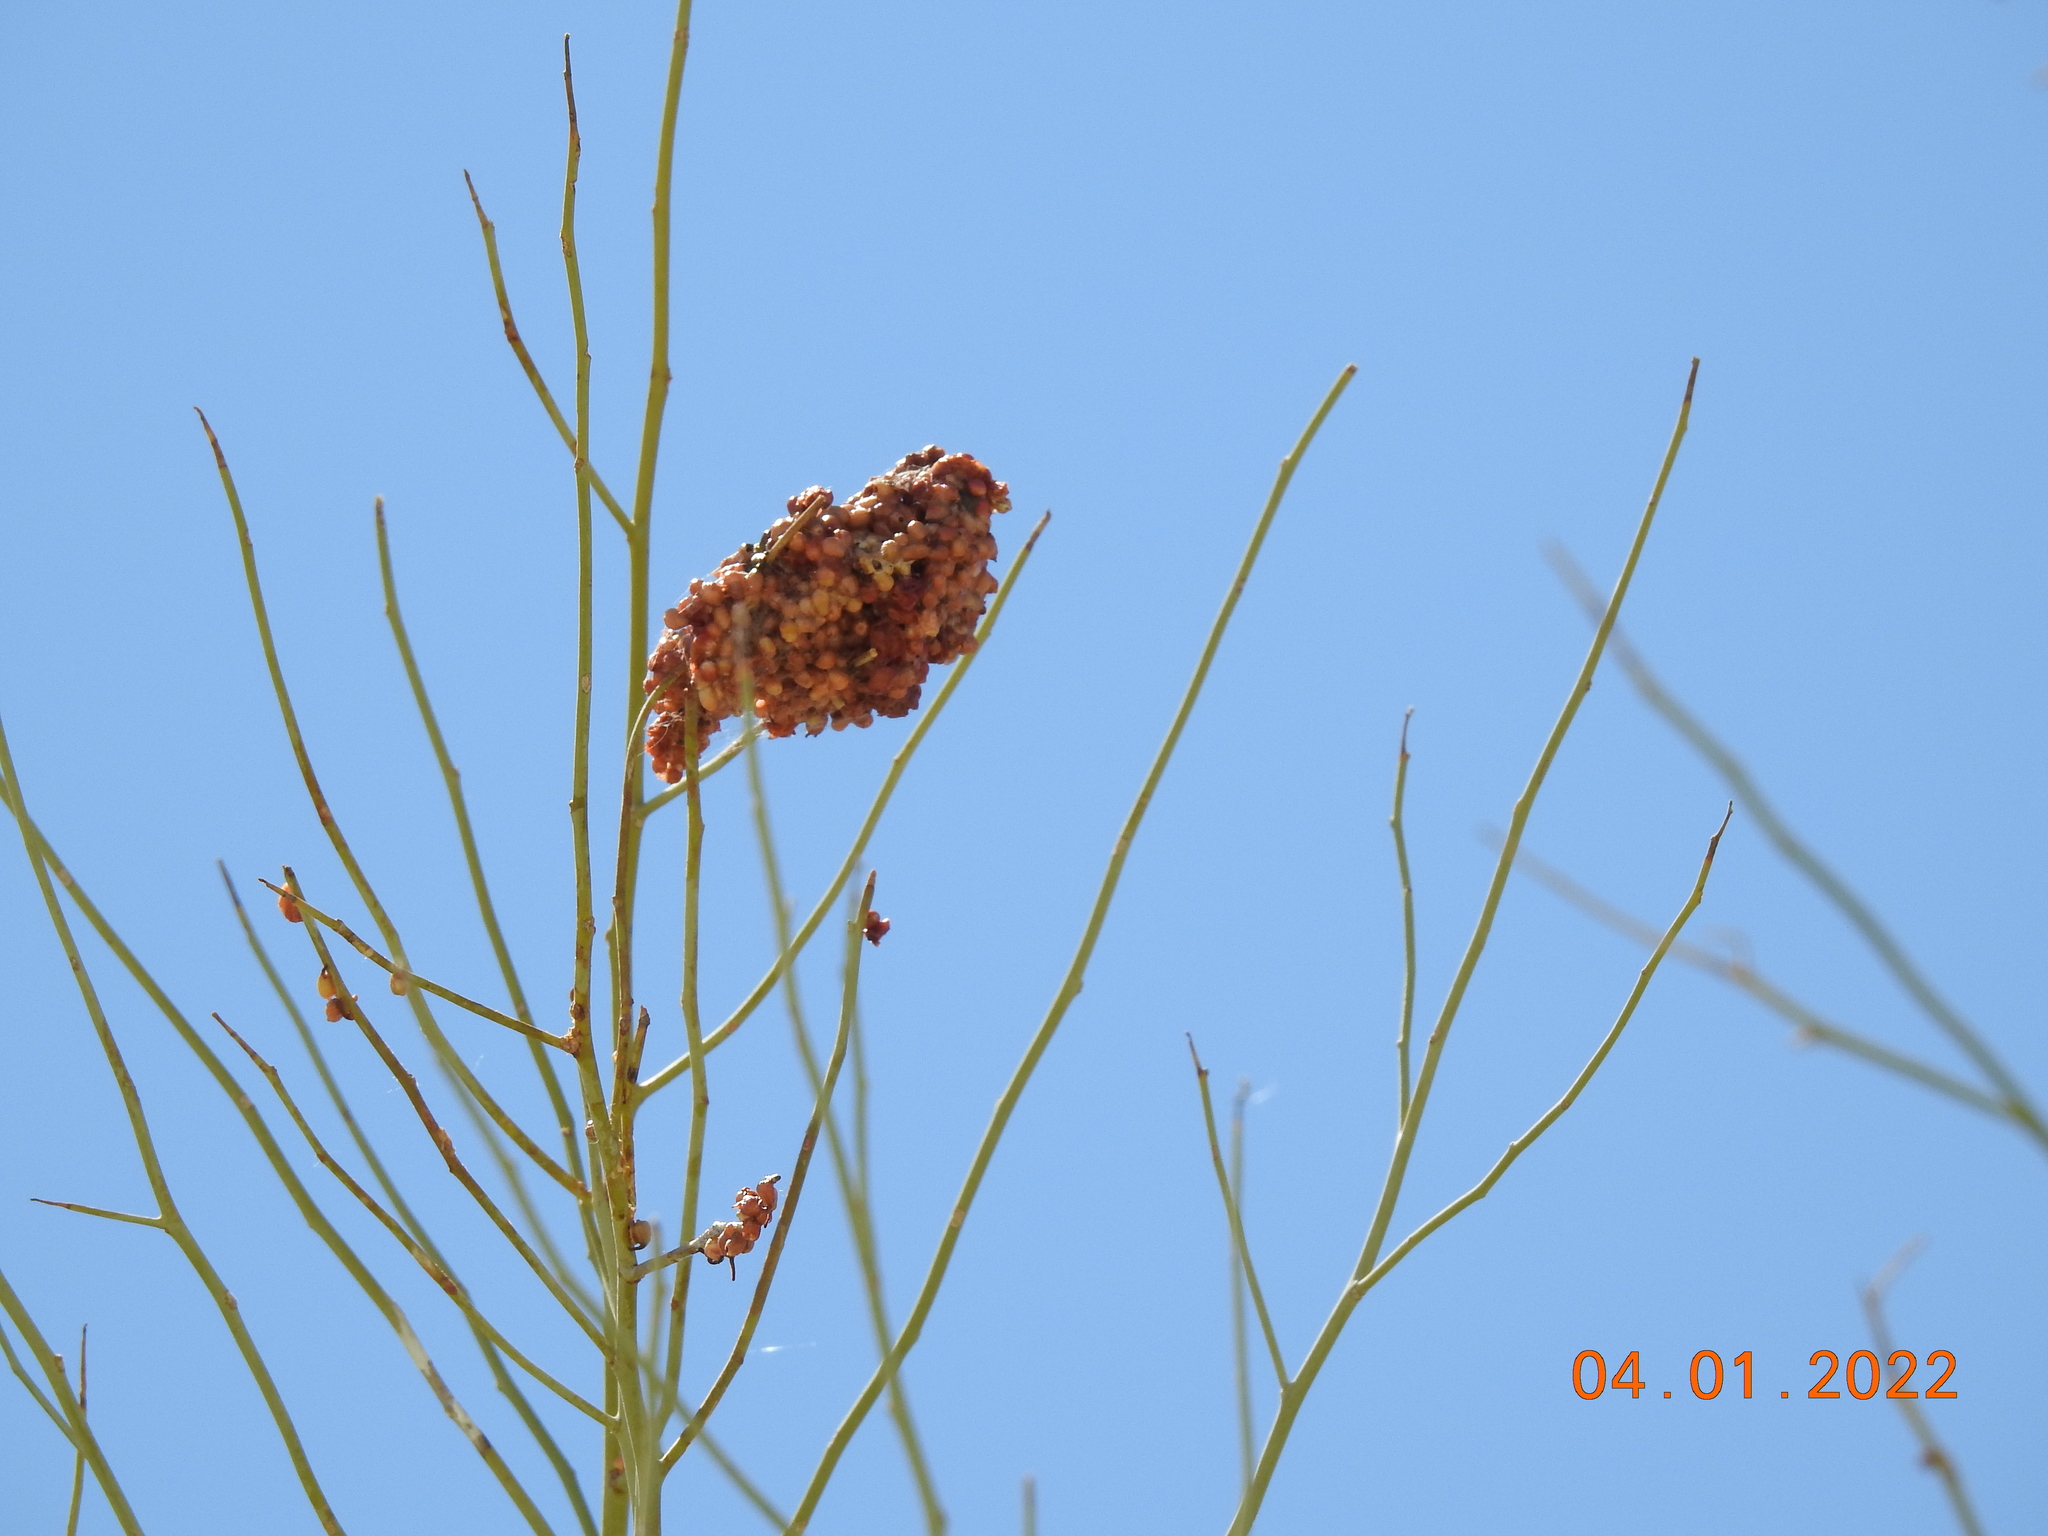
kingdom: Plantae
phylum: Tracheophyta
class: Magnoliopsida
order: Santalales
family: Viscaceae
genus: Phoradendron
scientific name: Phoradendron californicum
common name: Acacia mistletoe
